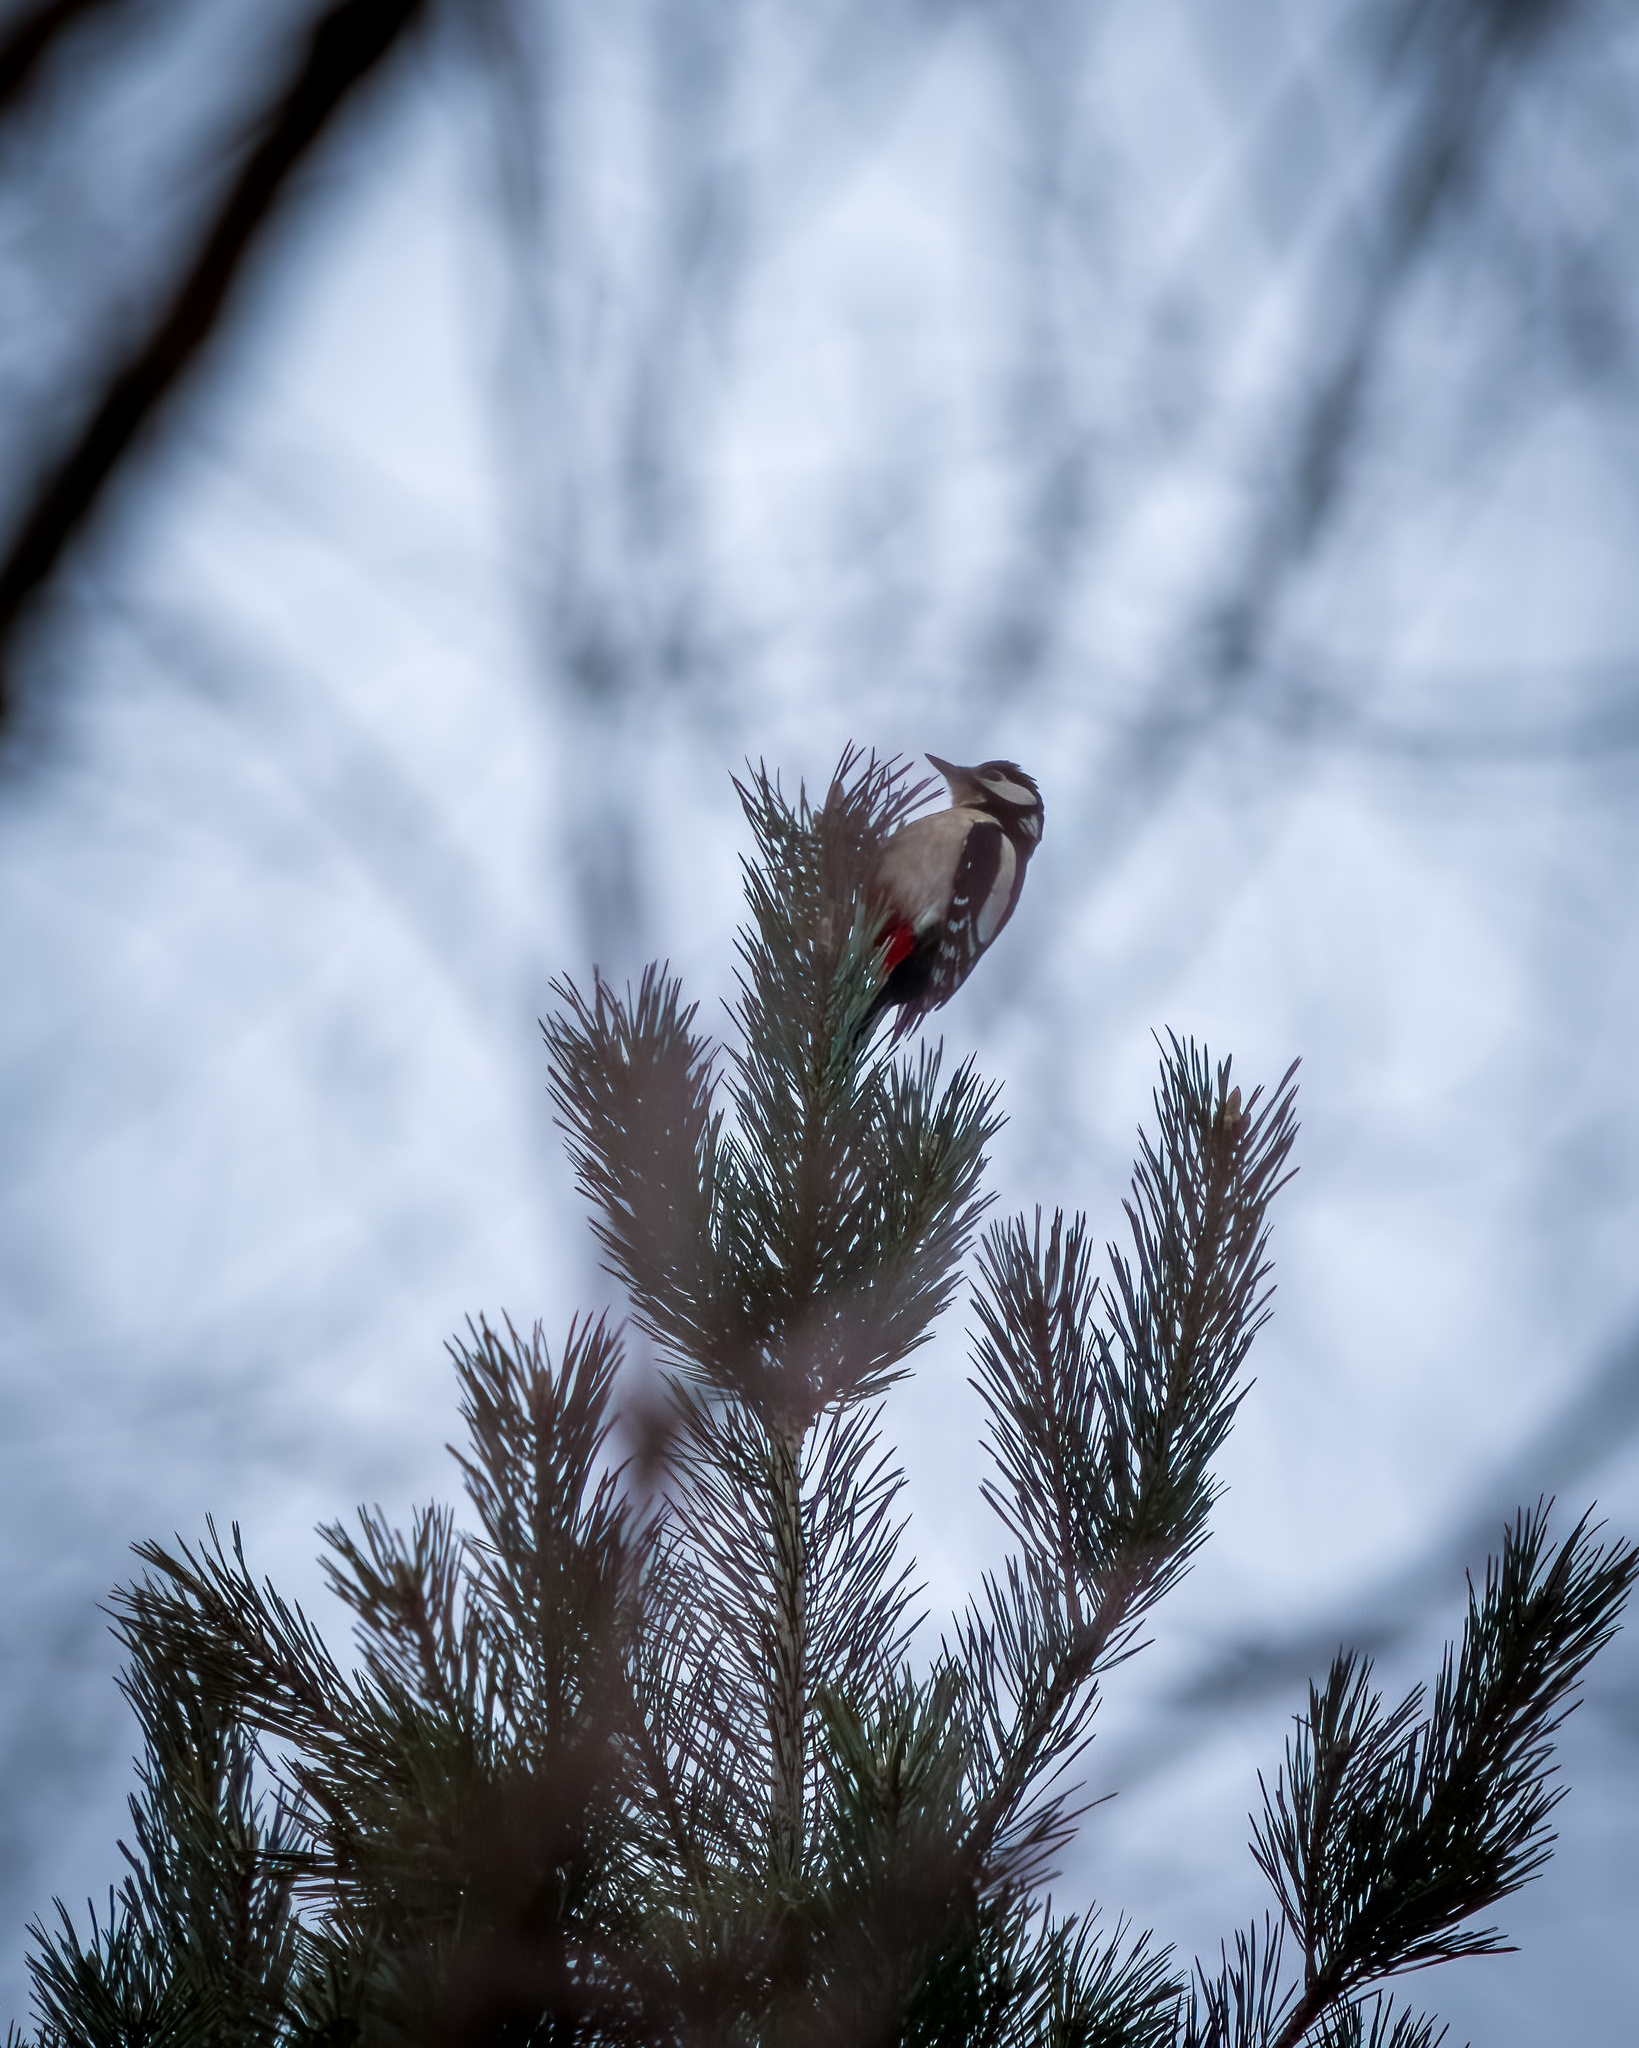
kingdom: Animalia
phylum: Chordata
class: Aves
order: Piciformes
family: Picidae
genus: Dendrocopos
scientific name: Dendrocopos major
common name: Great spotted woodpecker
